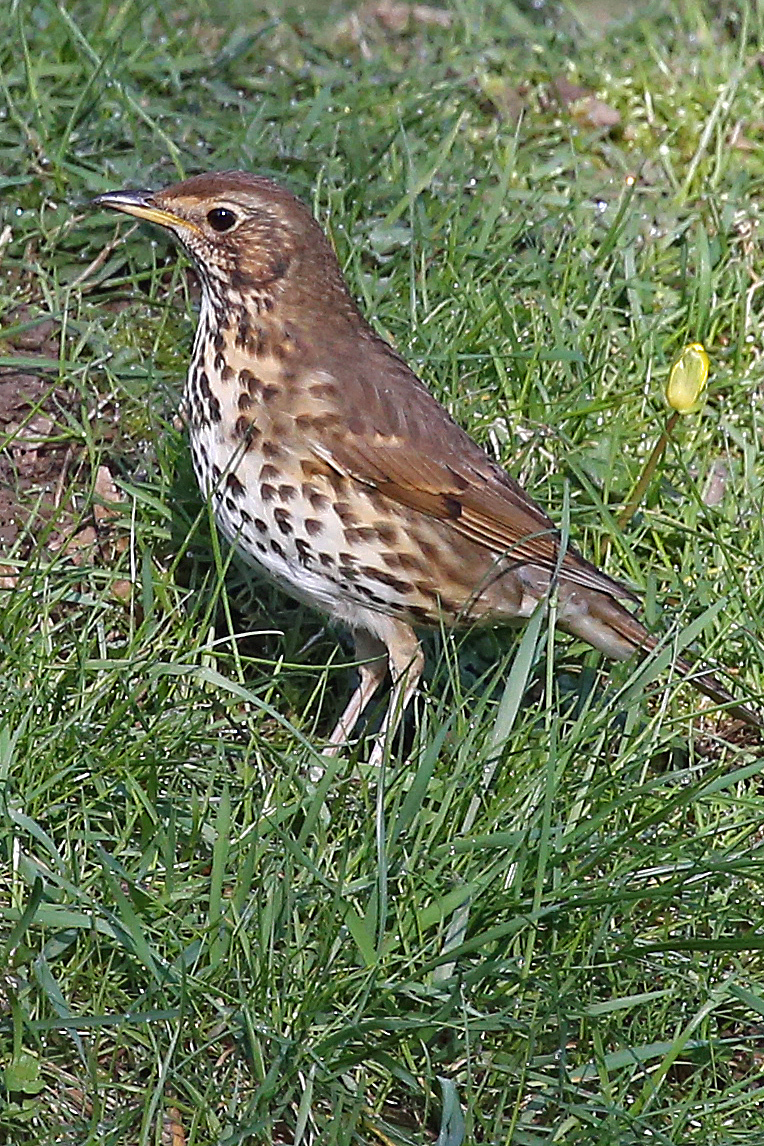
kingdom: Animalia
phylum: Chordata
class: Aves
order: Passeriformes
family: Turdidae
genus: Turdus
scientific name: Turdus philomelos
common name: Song thrush
